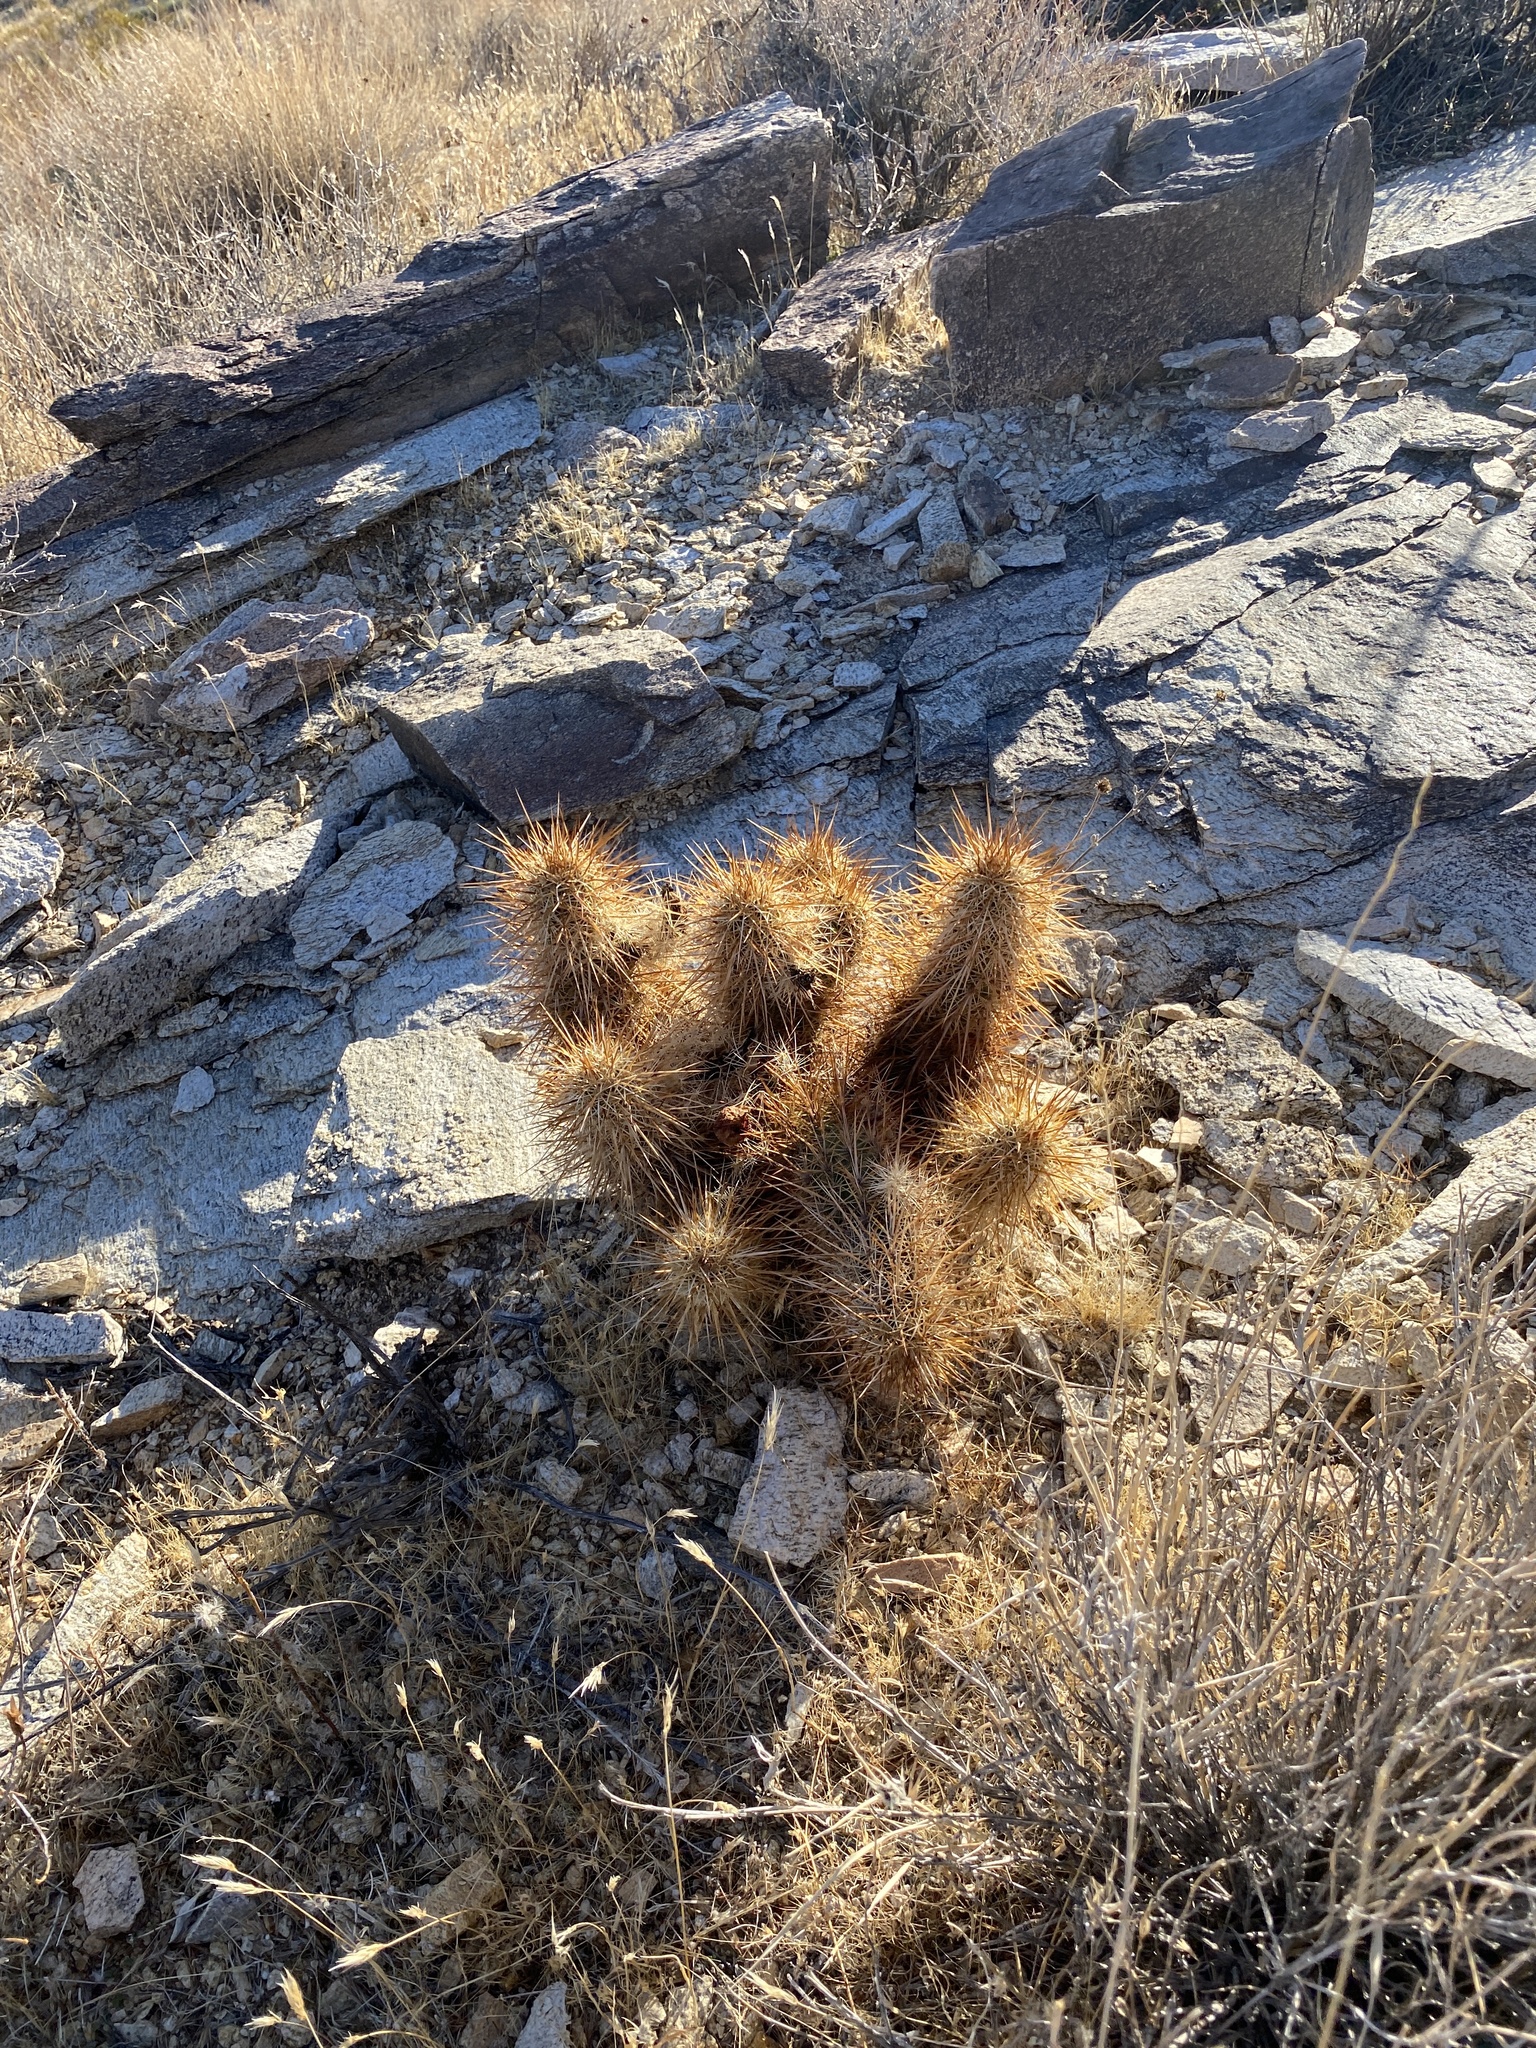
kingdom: Plantae
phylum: Tracheophyta
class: Magnoliopsida
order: Caryophyllales
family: Cactaceae
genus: Echinocereus
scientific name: Echinocereus engelmannii
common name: Engelmann's hedgehog cactus
